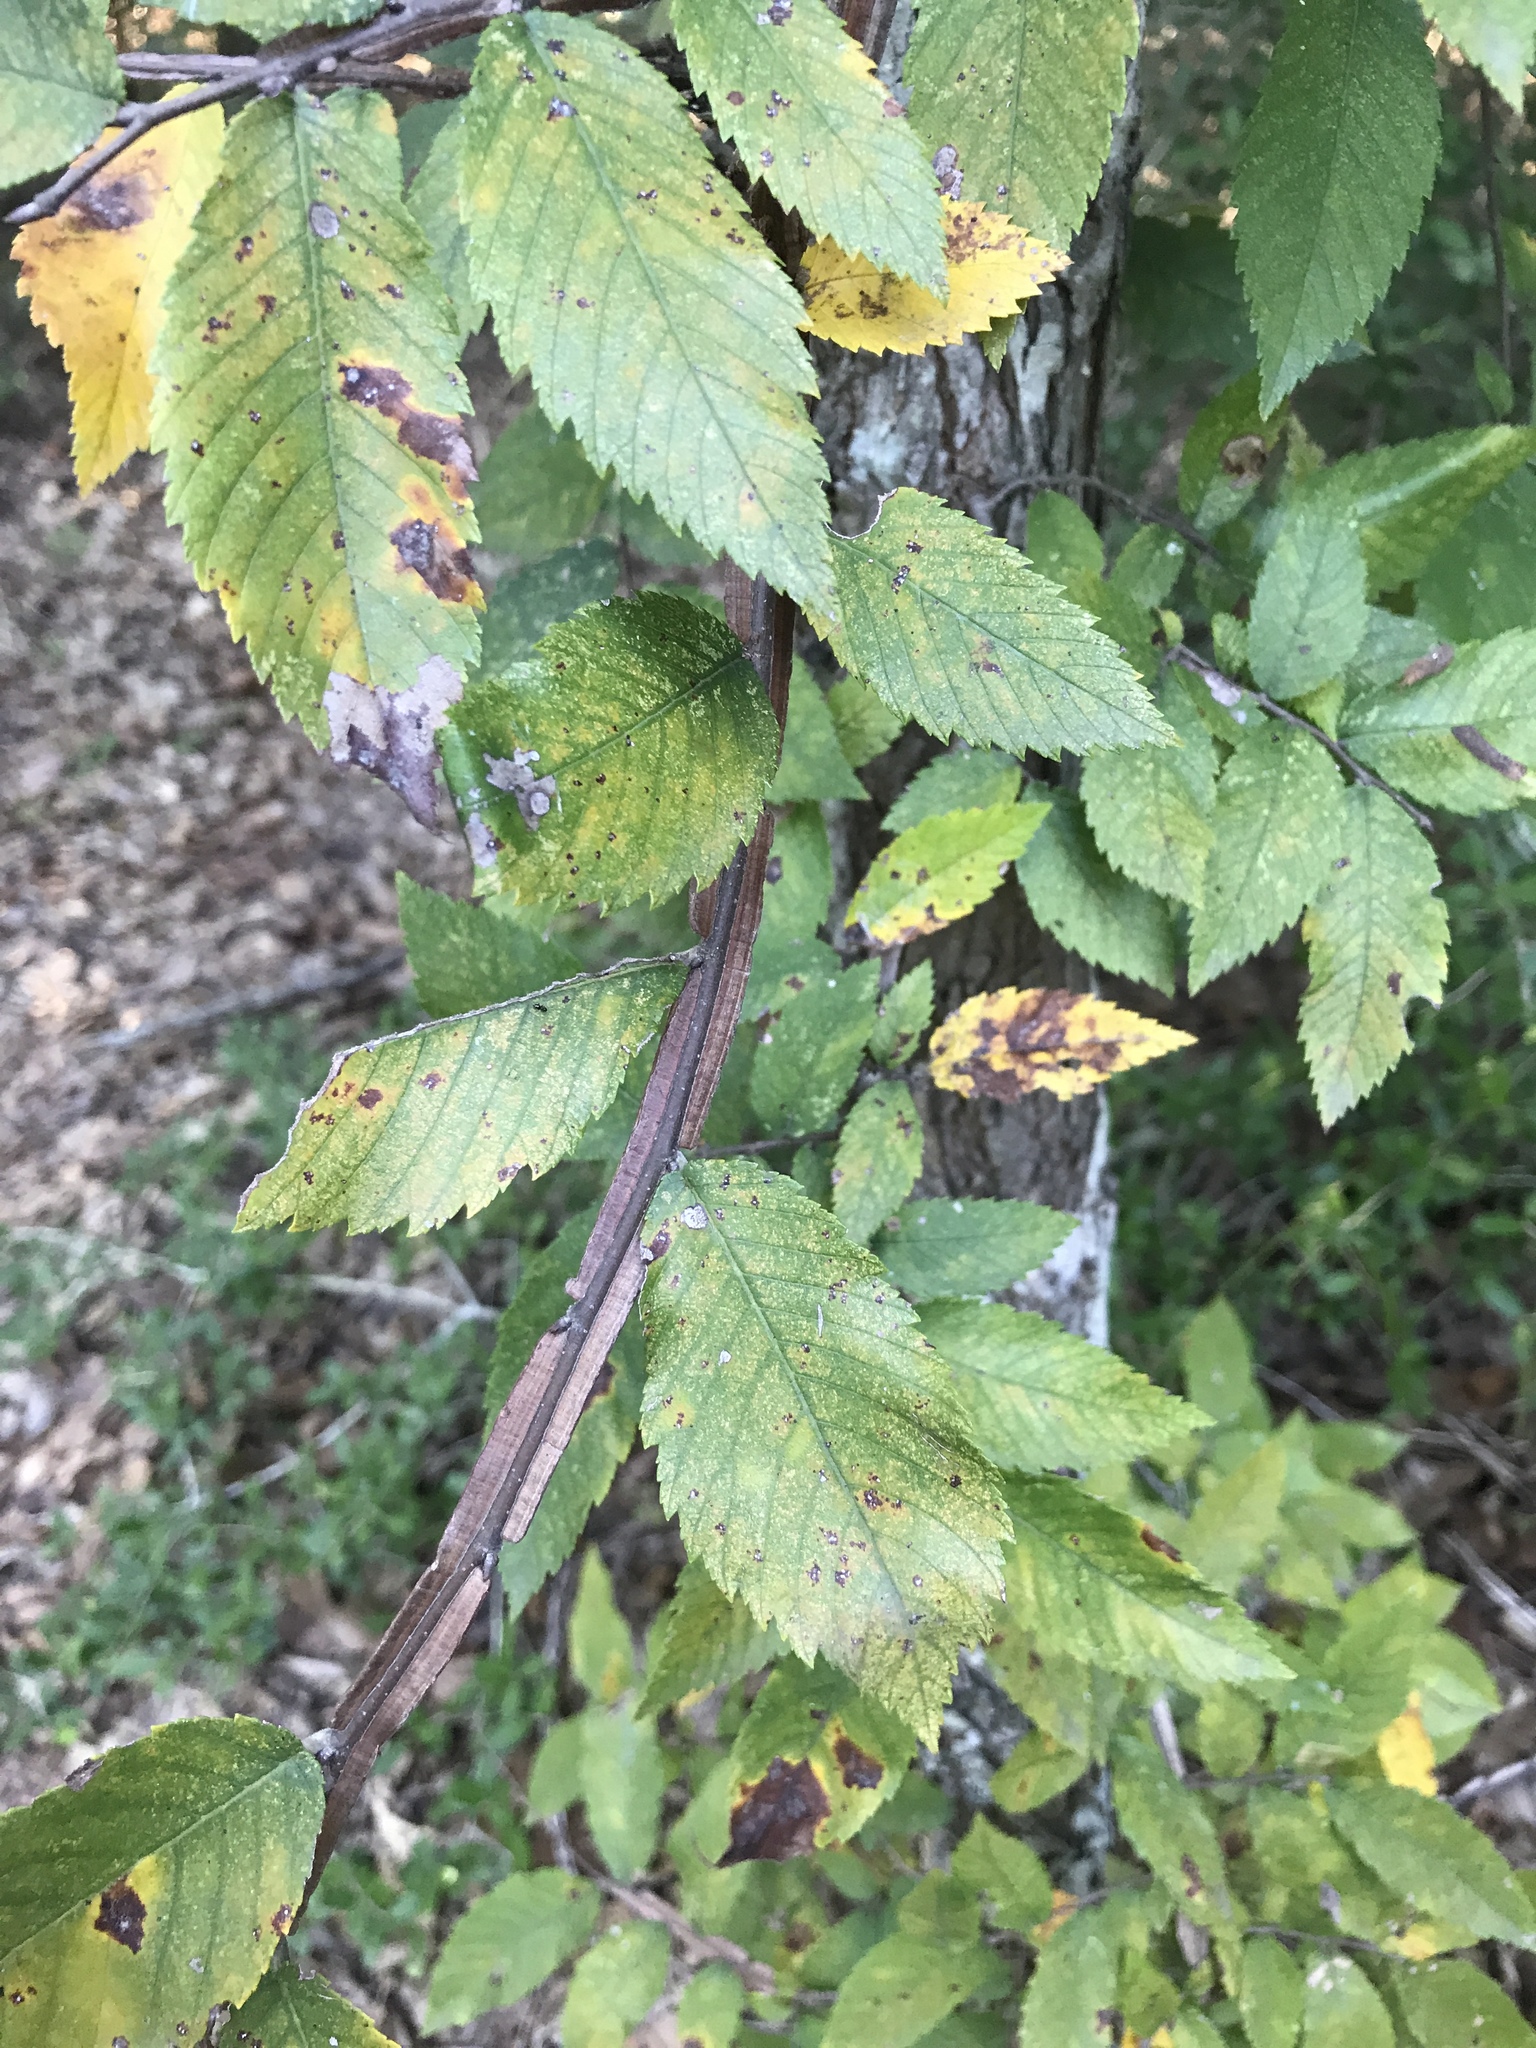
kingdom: Plantae
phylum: Tracheophyta
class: Magnoliopsida
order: Rosales
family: Ulmaceae
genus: Ulmus
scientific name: Ulmus alata
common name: Winged elm
